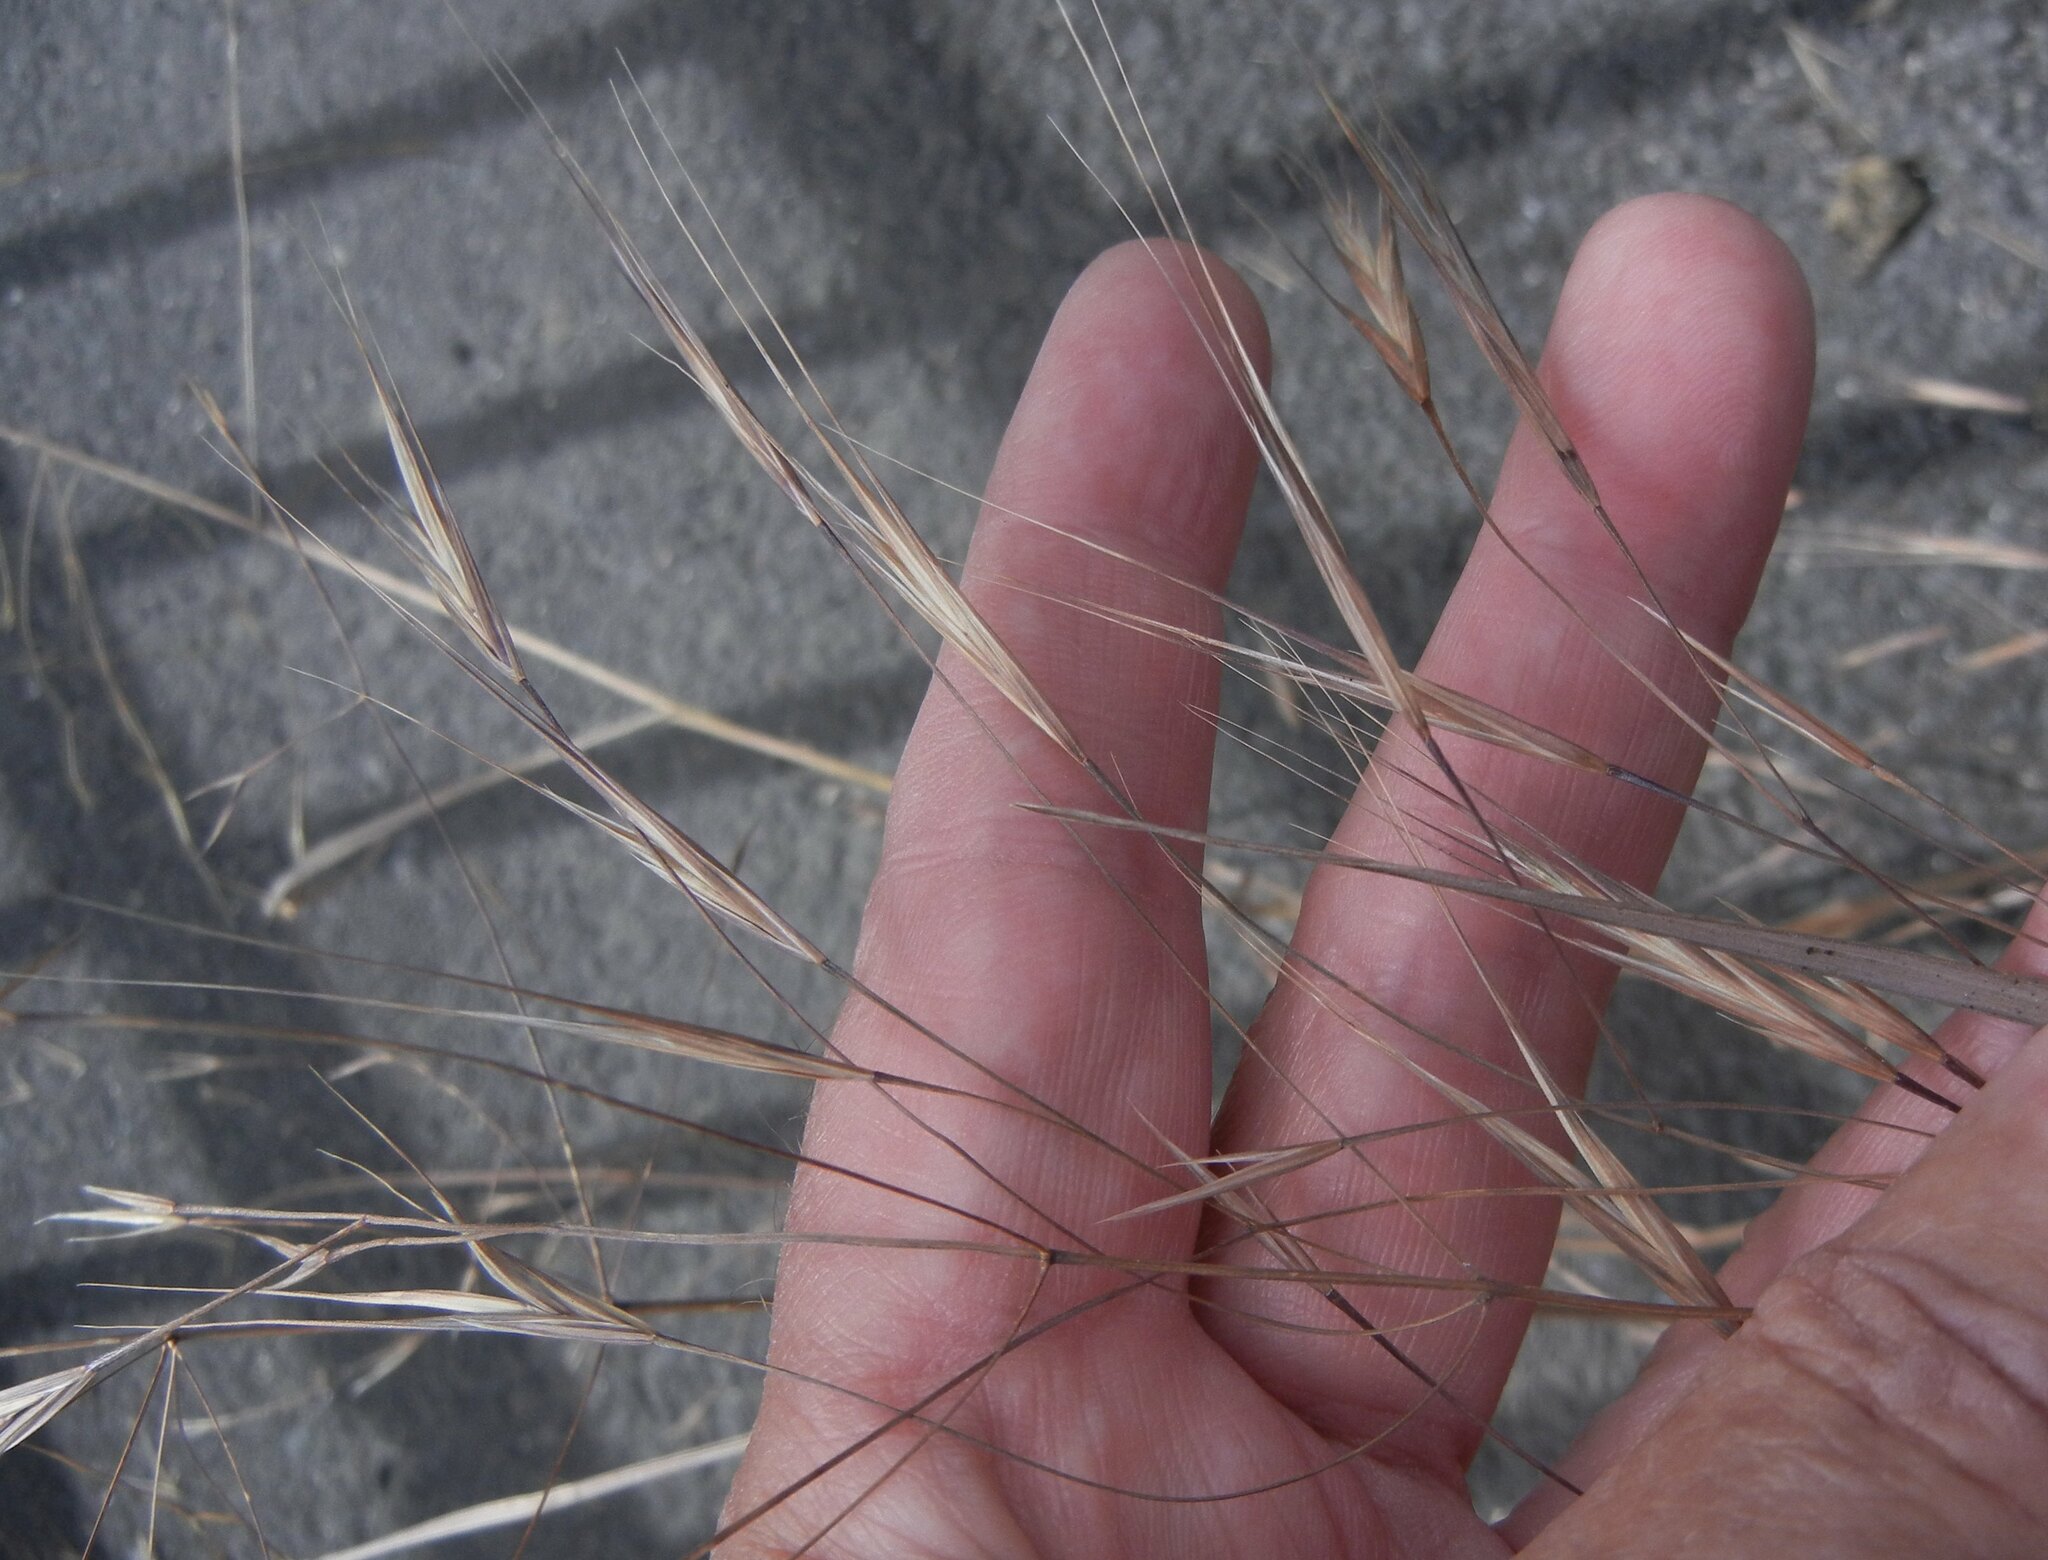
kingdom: Plantae
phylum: Tracheophyta
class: Liliopsida
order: Poales
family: Poaceae
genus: Bromus
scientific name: Bromus sterilis
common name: Poverty brome
